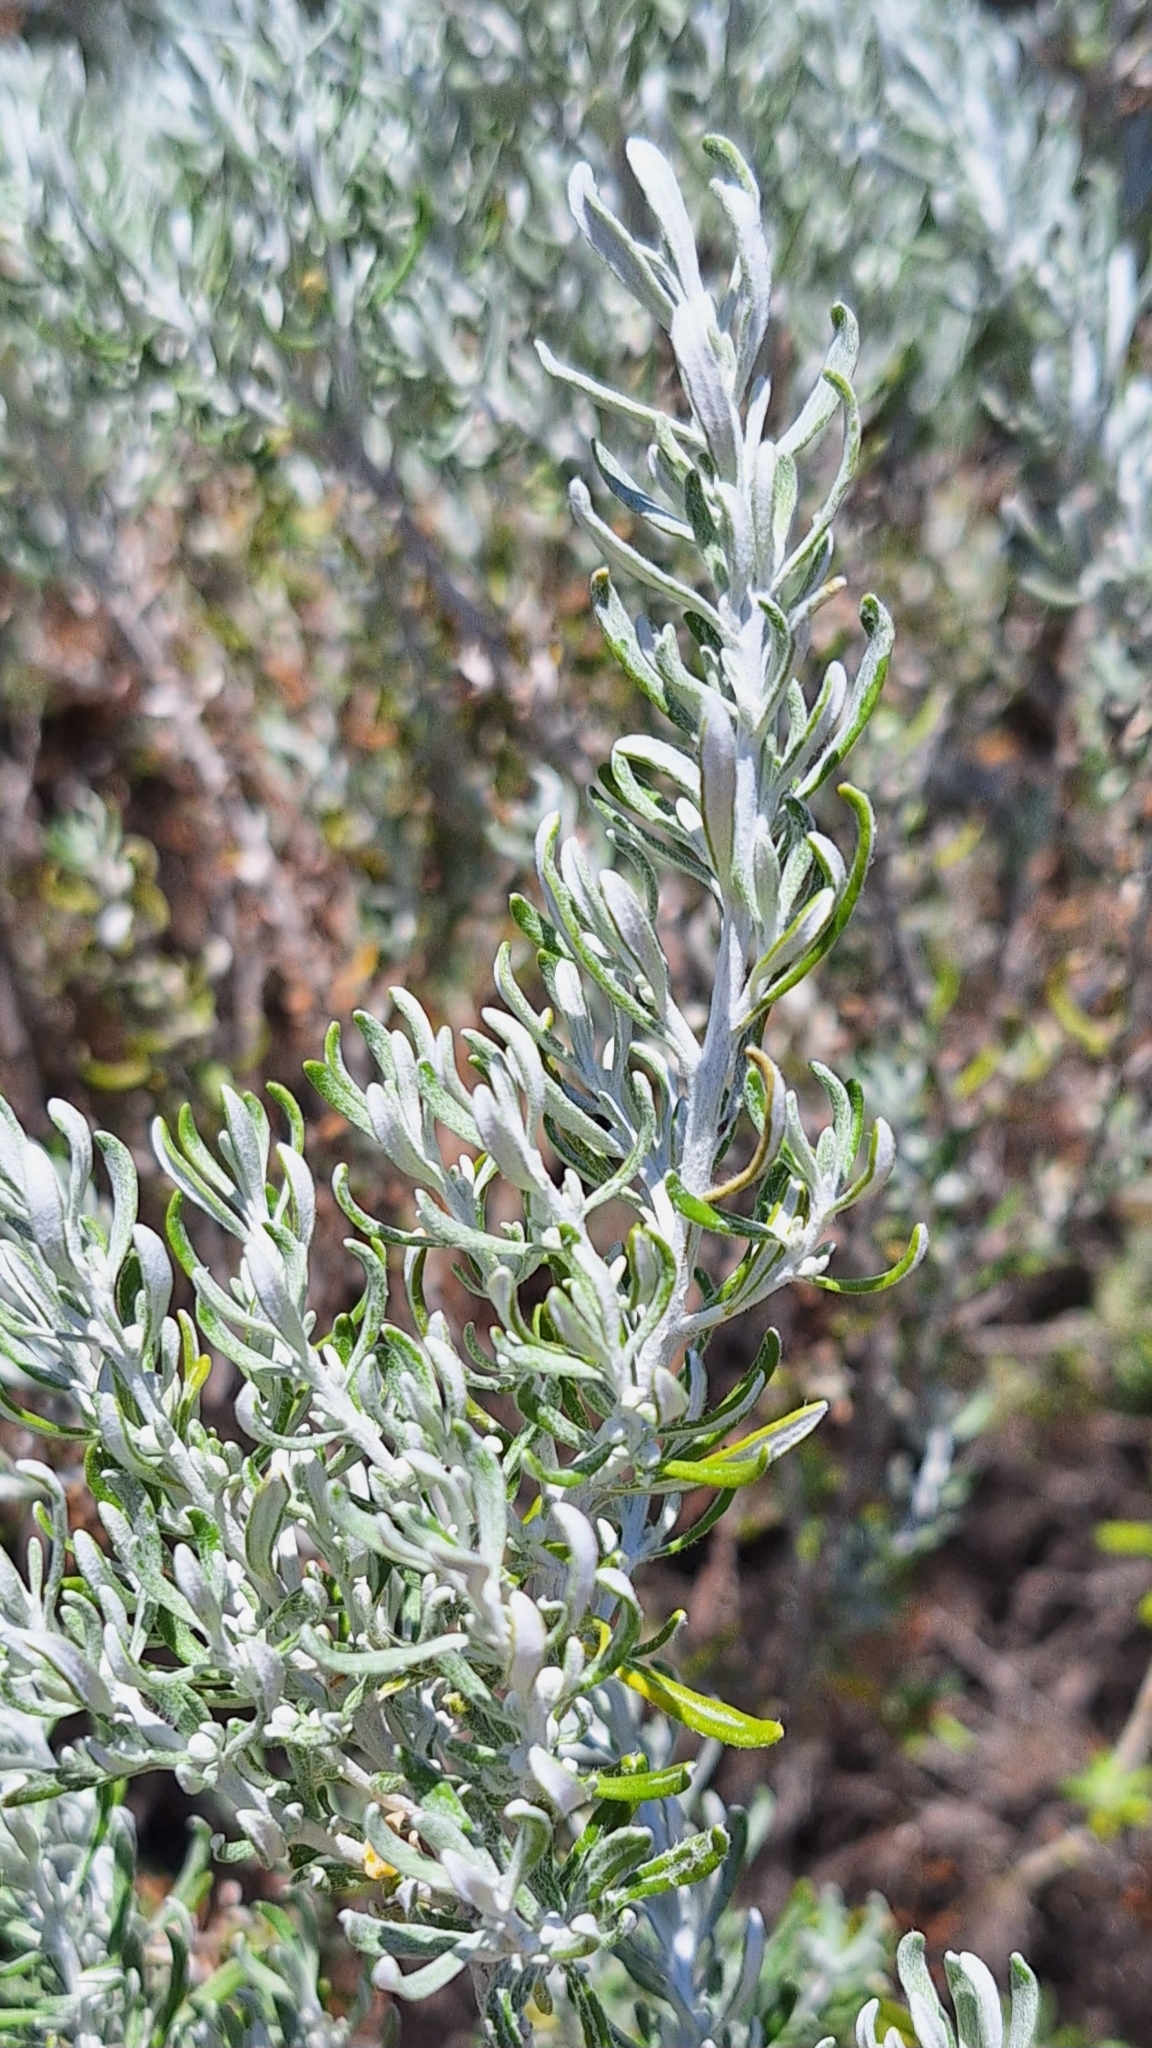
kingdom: Plantae
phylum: Tracheophyta
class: Magnoliopsida
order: Asterales
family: Asteraceae
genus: Olearia
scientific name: Olearia axillaris
